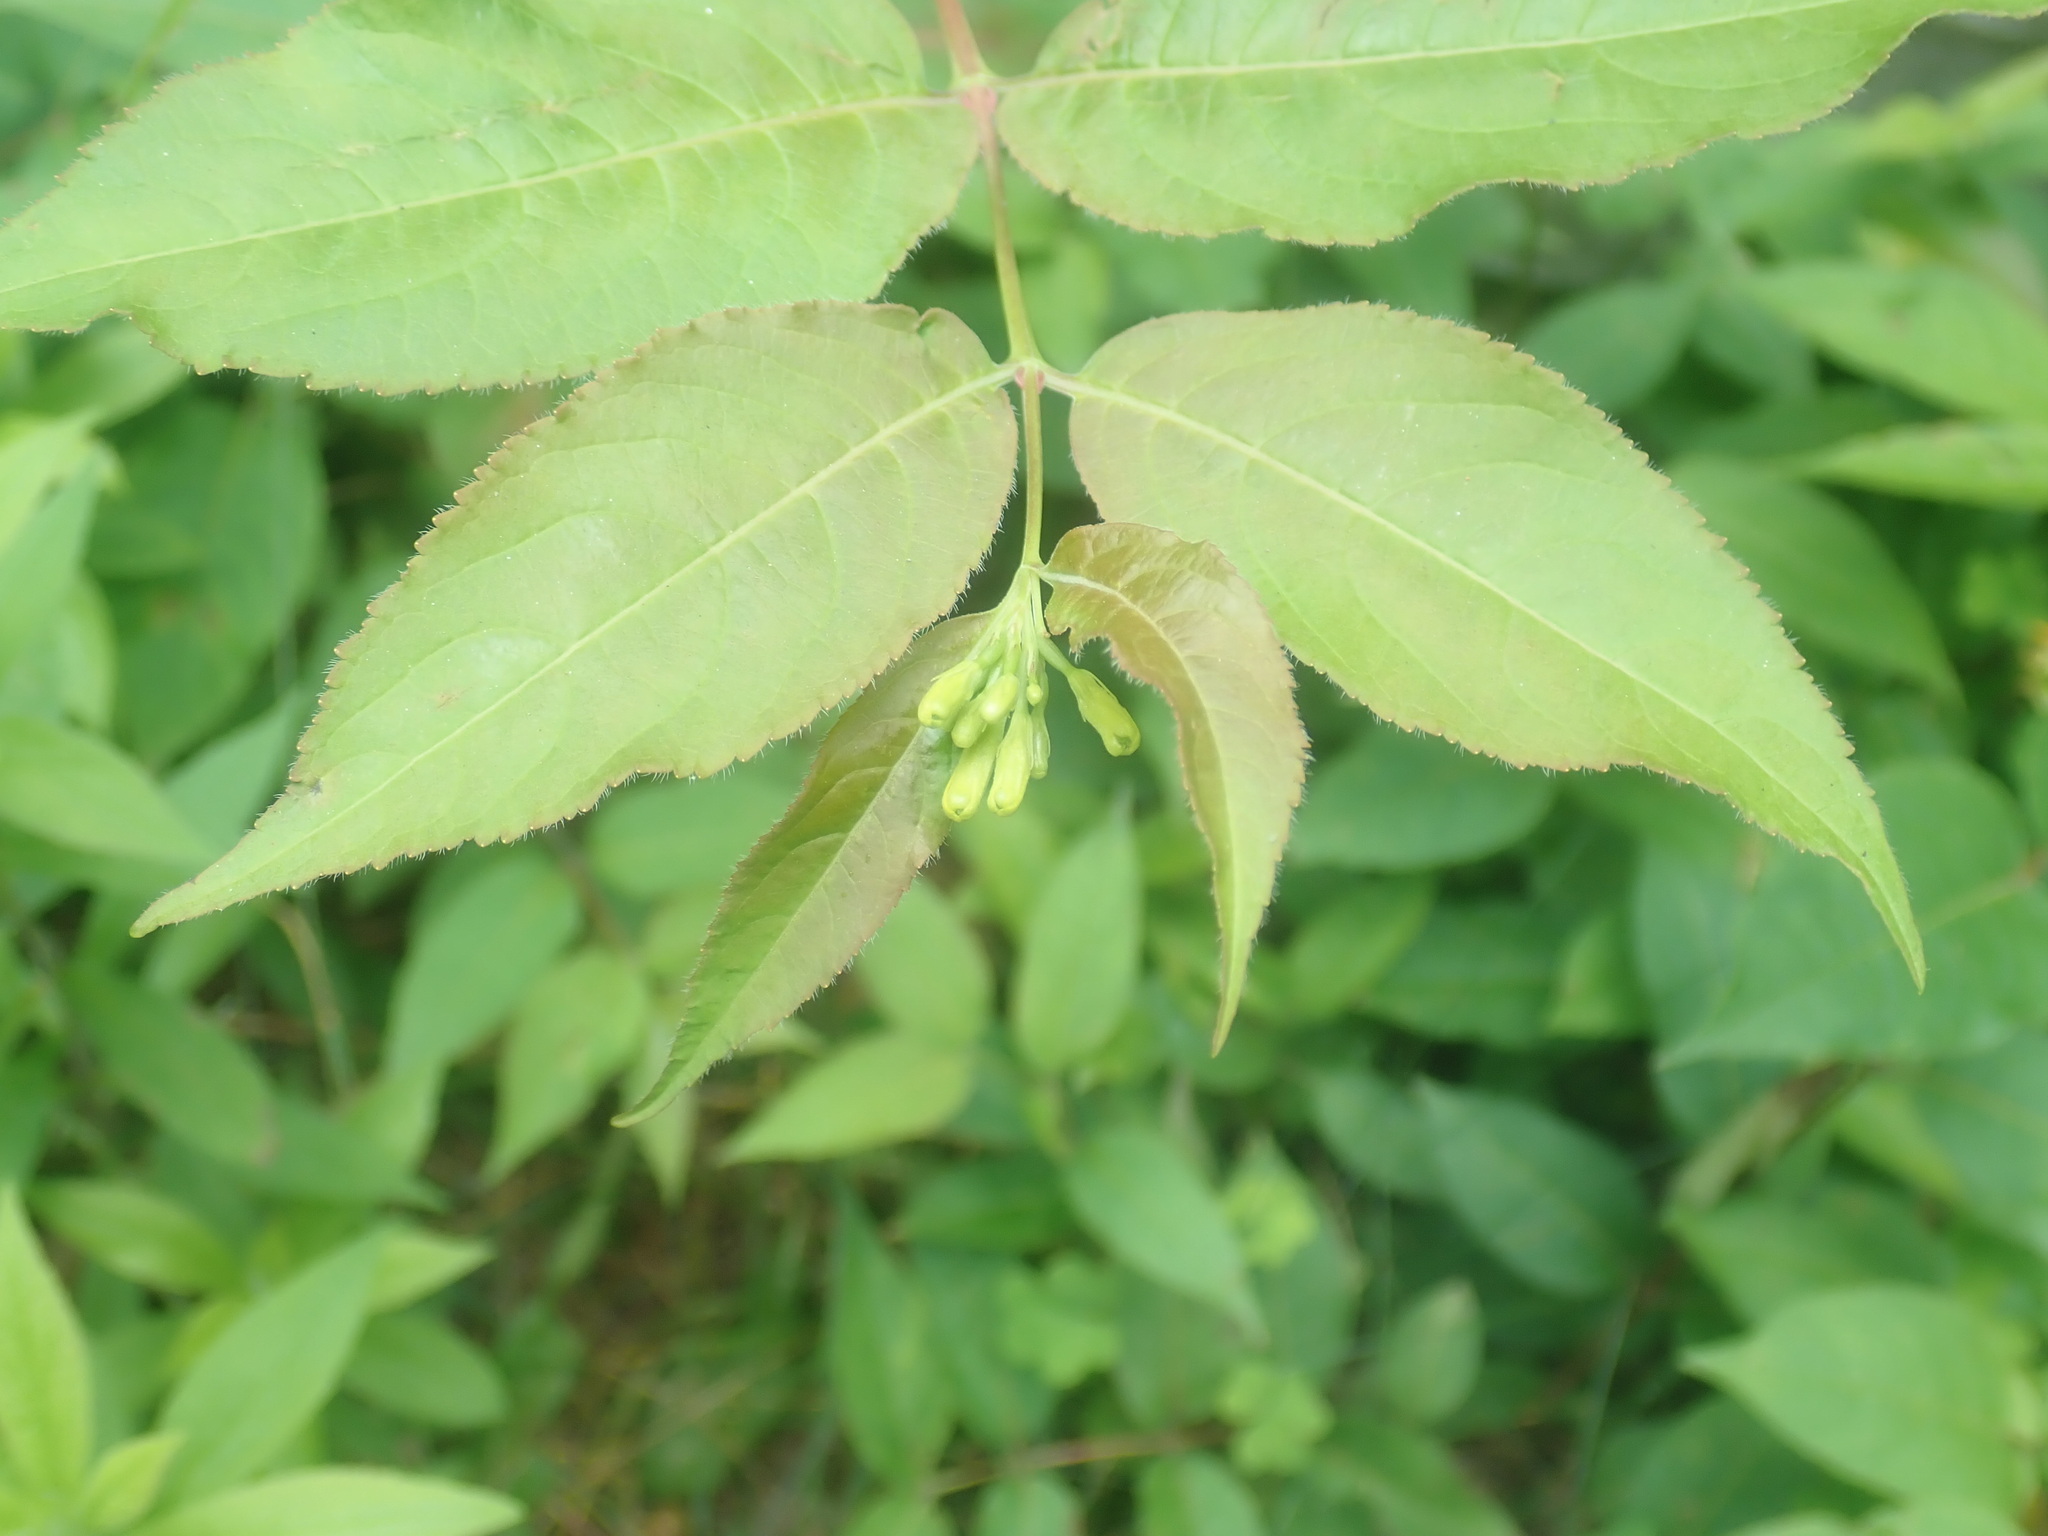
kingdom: Plantae
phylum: Tracheophyta
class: Magnoliopsida
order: Dipsacales
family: Caprifoliaceae
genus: Diervilla
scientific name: Diervilla lonicera
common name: Bush-honeysuckle
